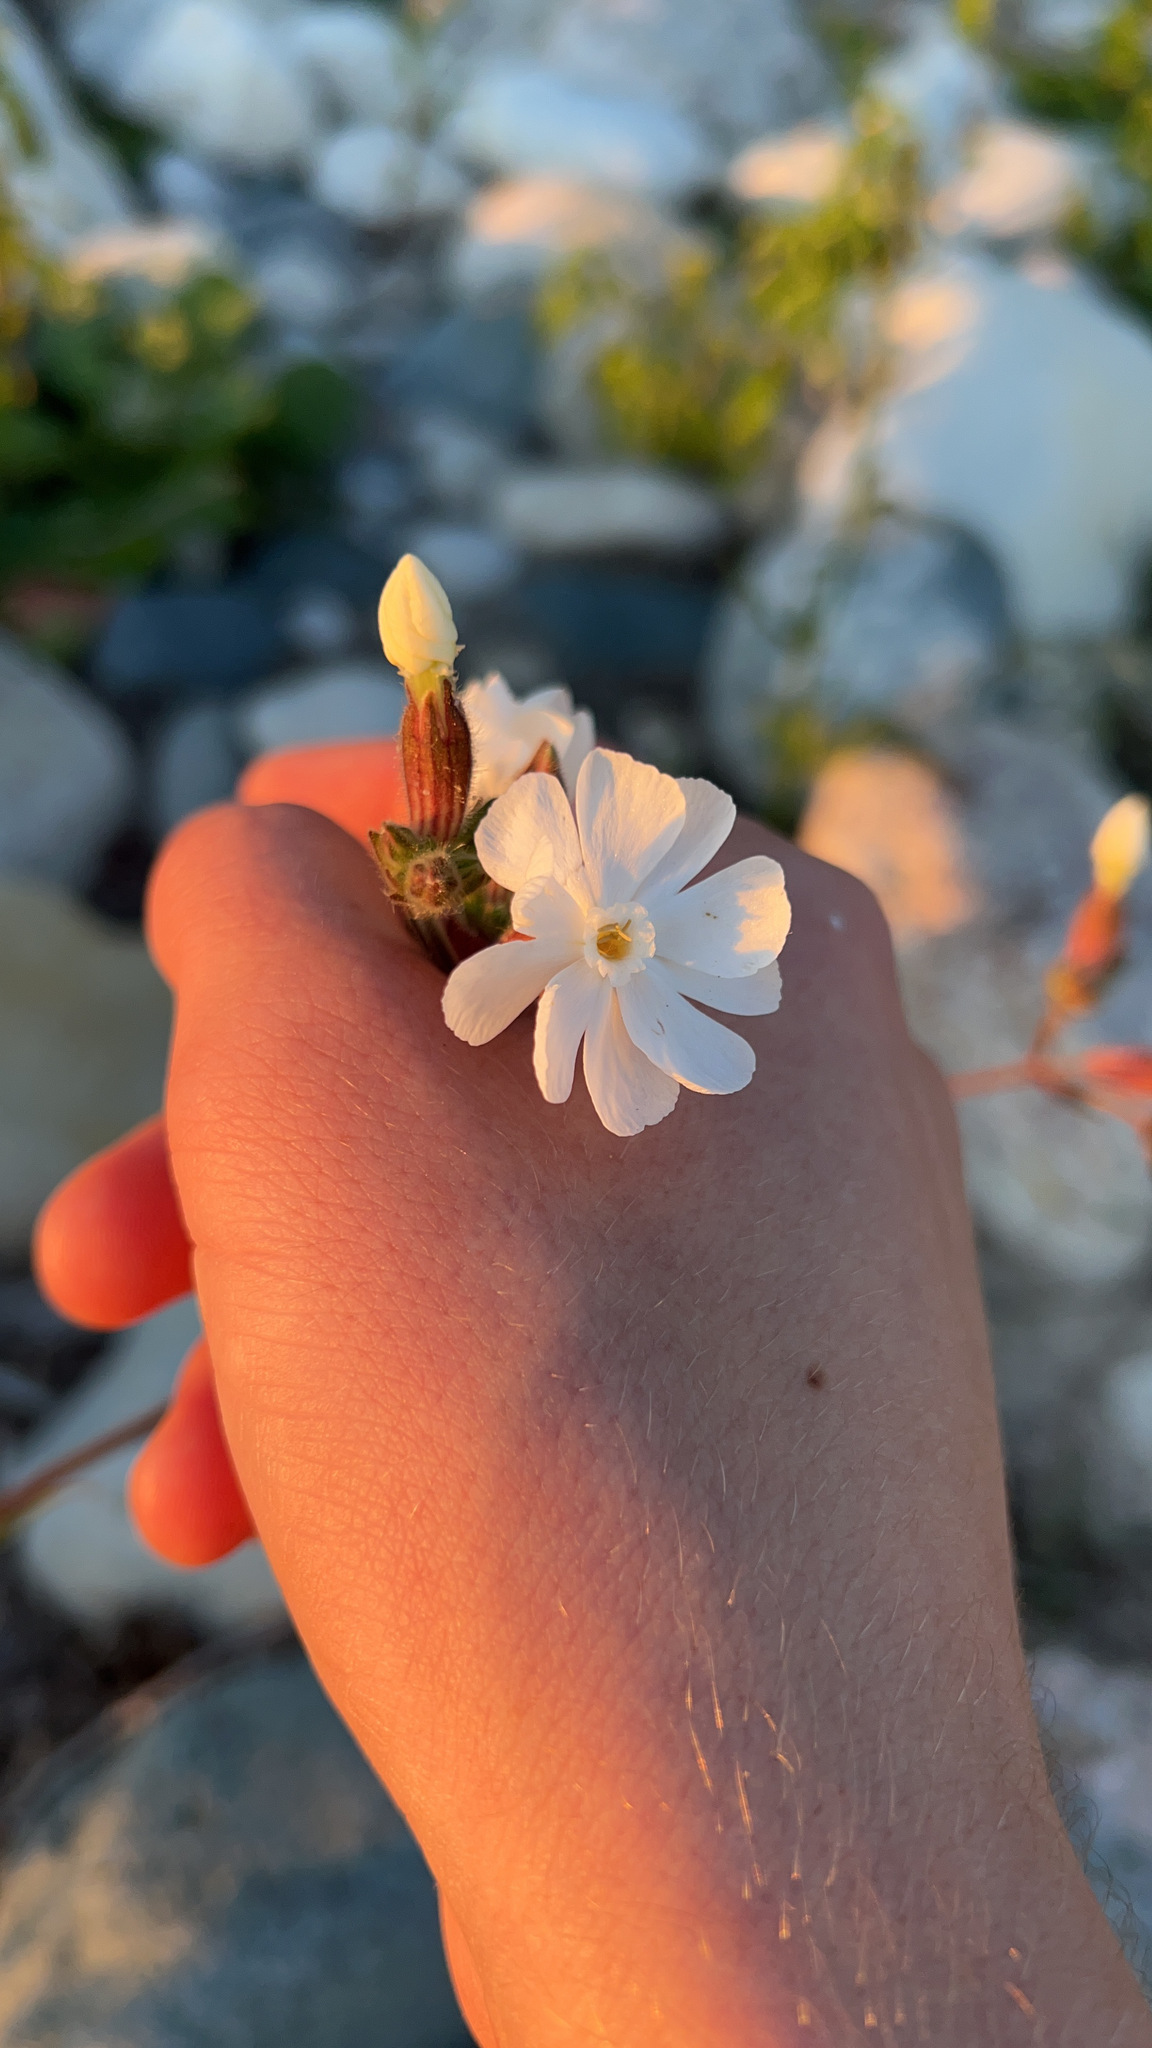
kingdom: Plantae
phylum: Tracheophyta
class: Magnoliopsida
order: Caryophyllales
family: Caryophyllaceae
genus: Silene
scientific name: Silene latifolia
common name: White campion
